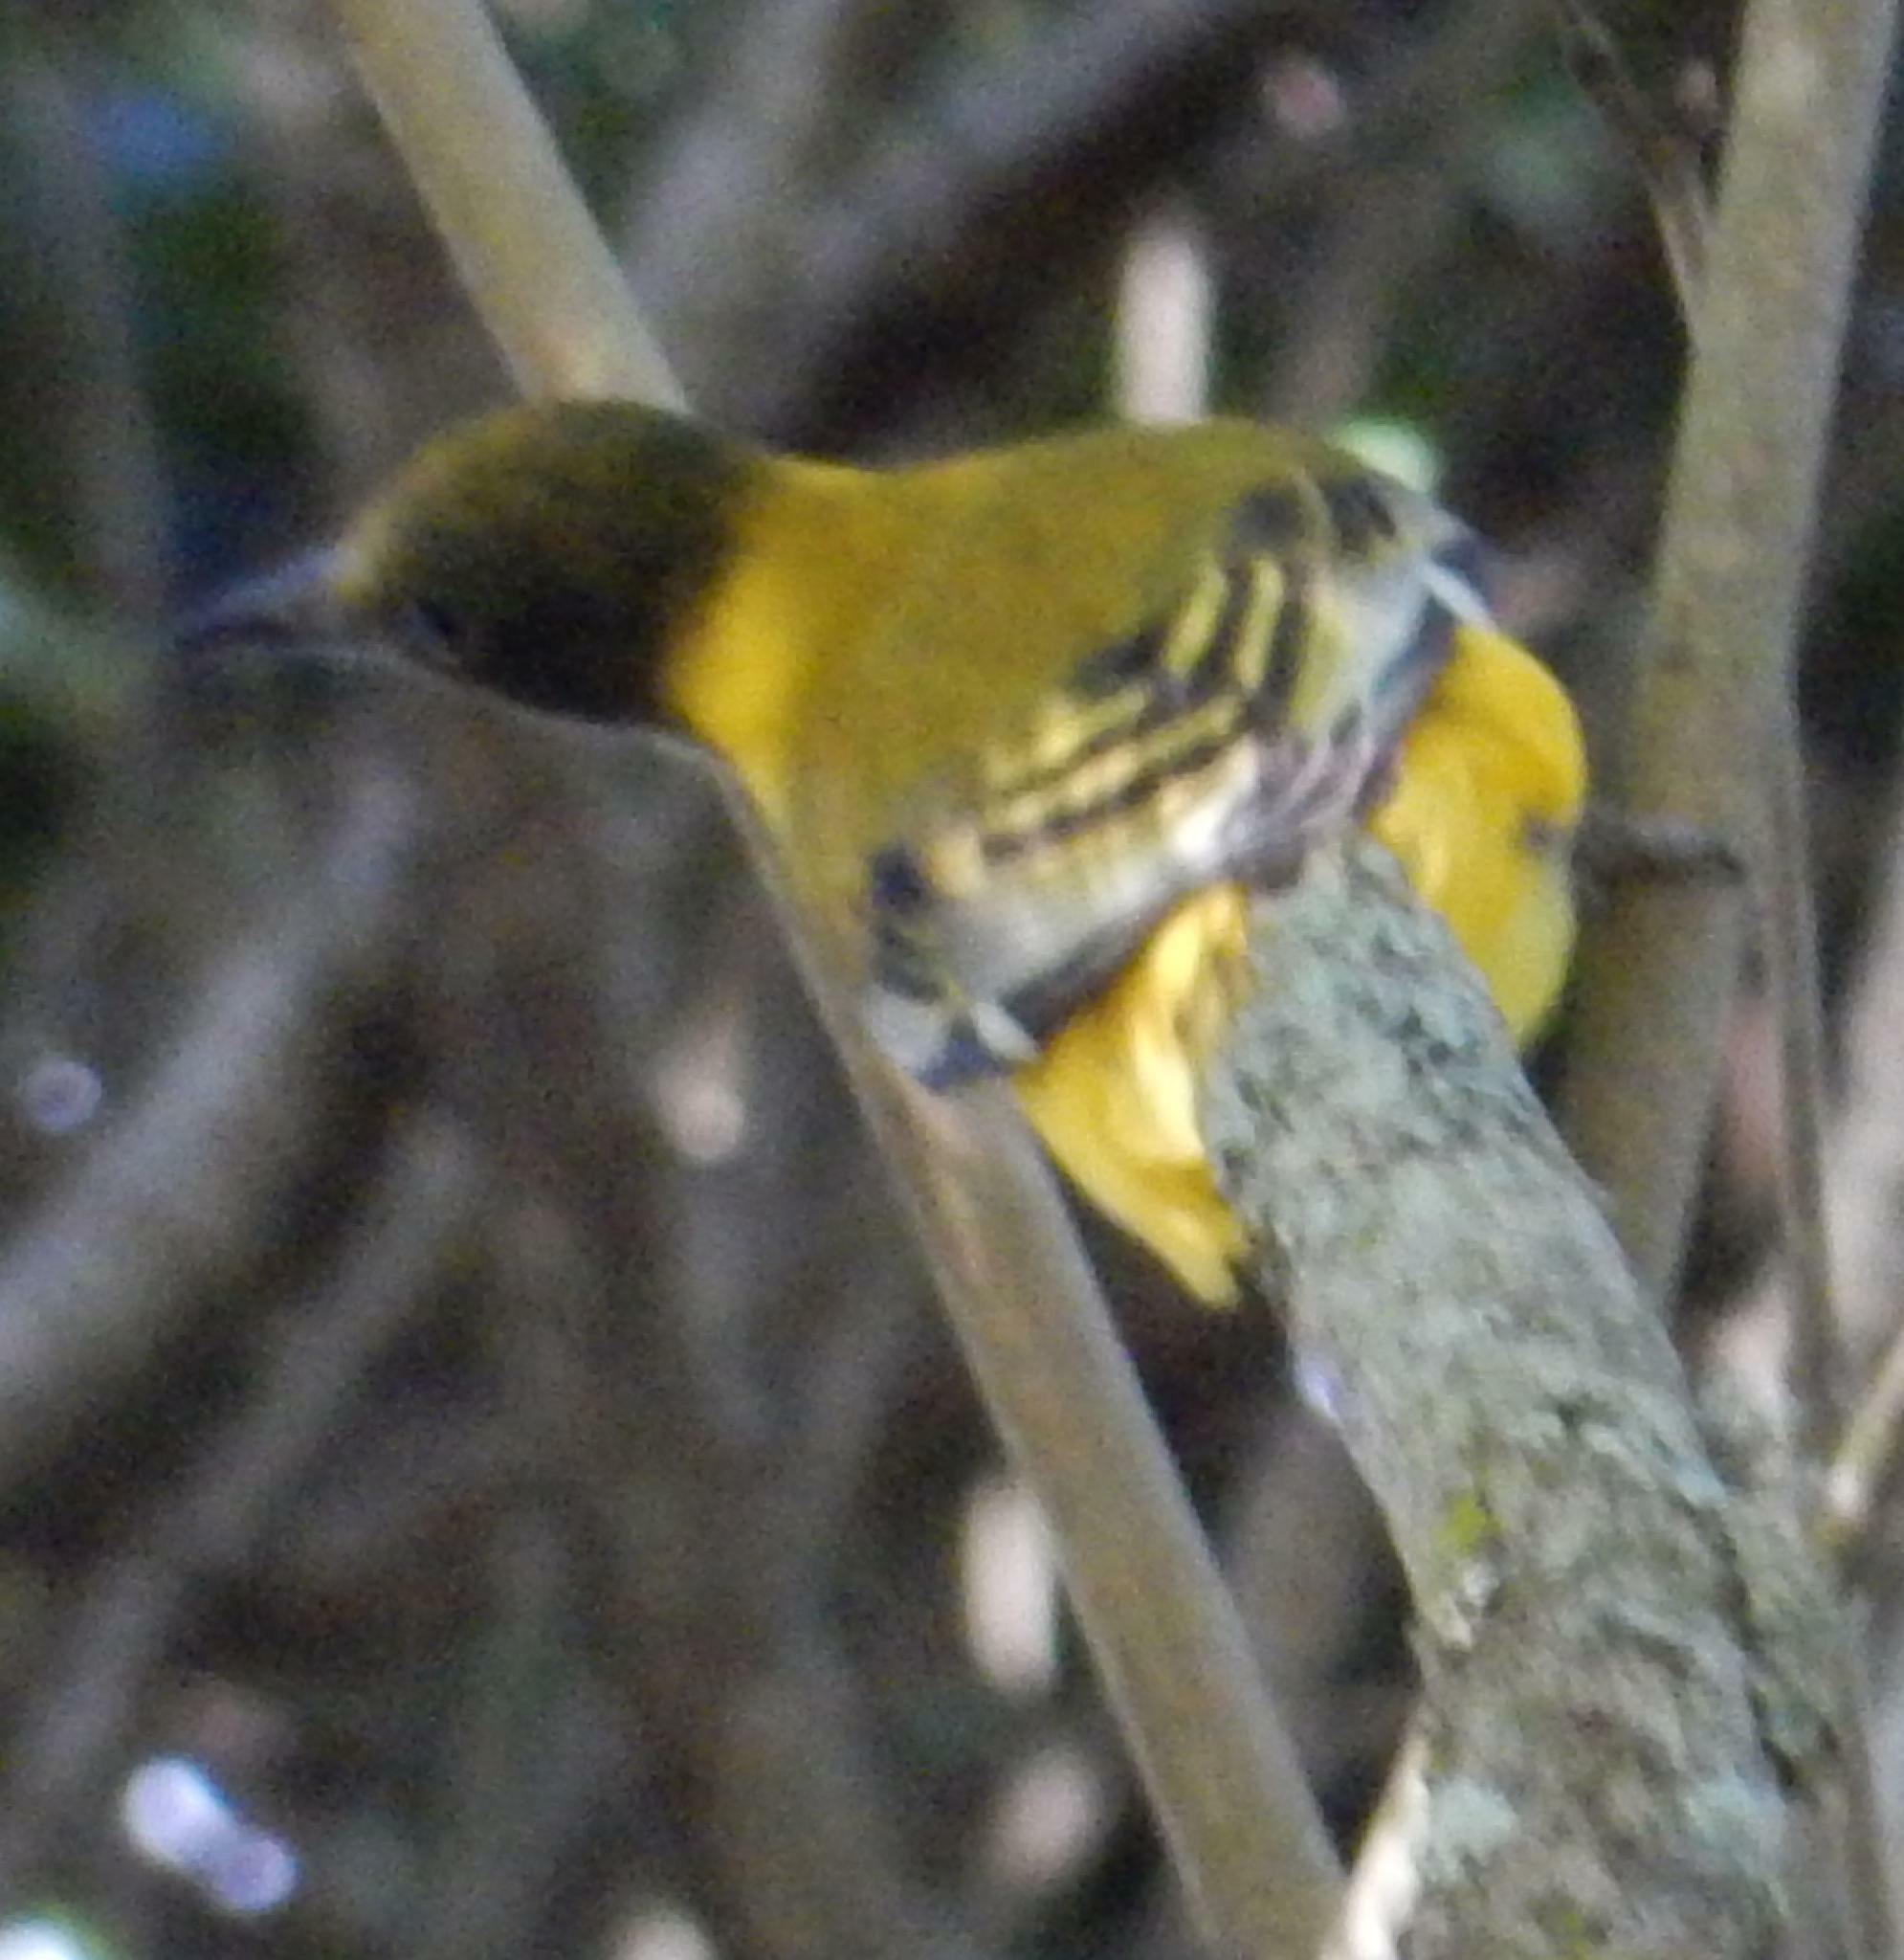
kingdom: Animalia
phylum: Chordata
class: Aves
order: Passeriformes
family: Oriolidae
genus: Oriolus
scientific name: Oriolus larvatus
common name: Black-headed oriole
